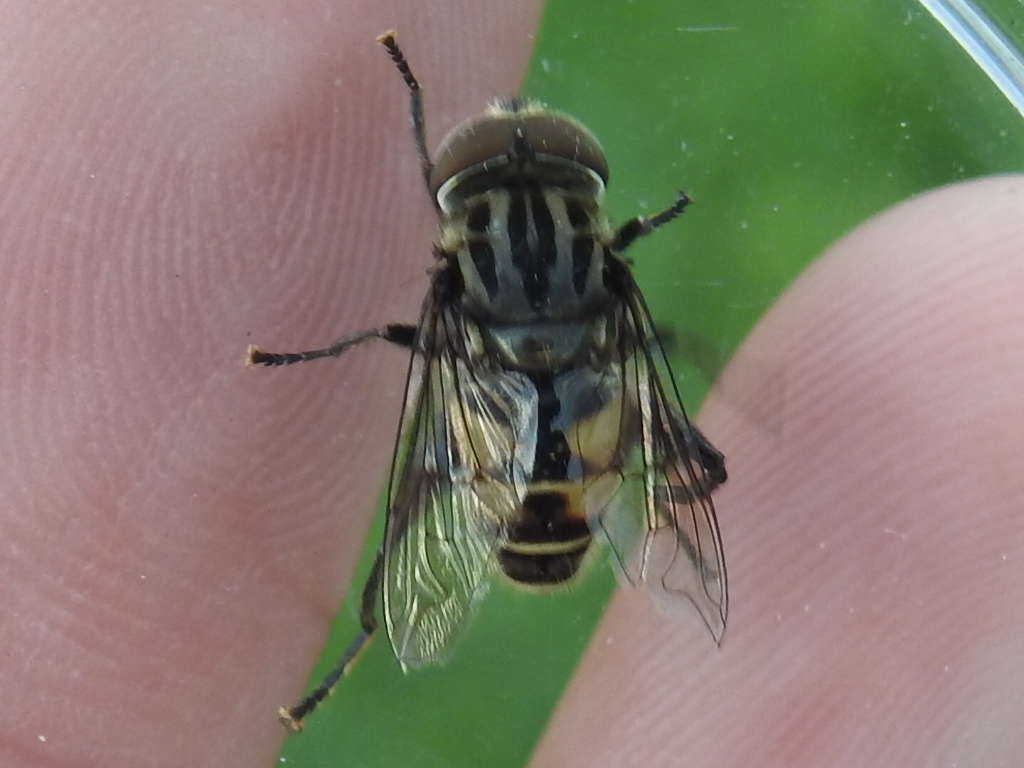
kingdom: Animalia
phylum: Arthropoda
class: Insecta
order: Diptera
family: Syrphidae
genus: Palpada
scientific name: Palpada furcata
